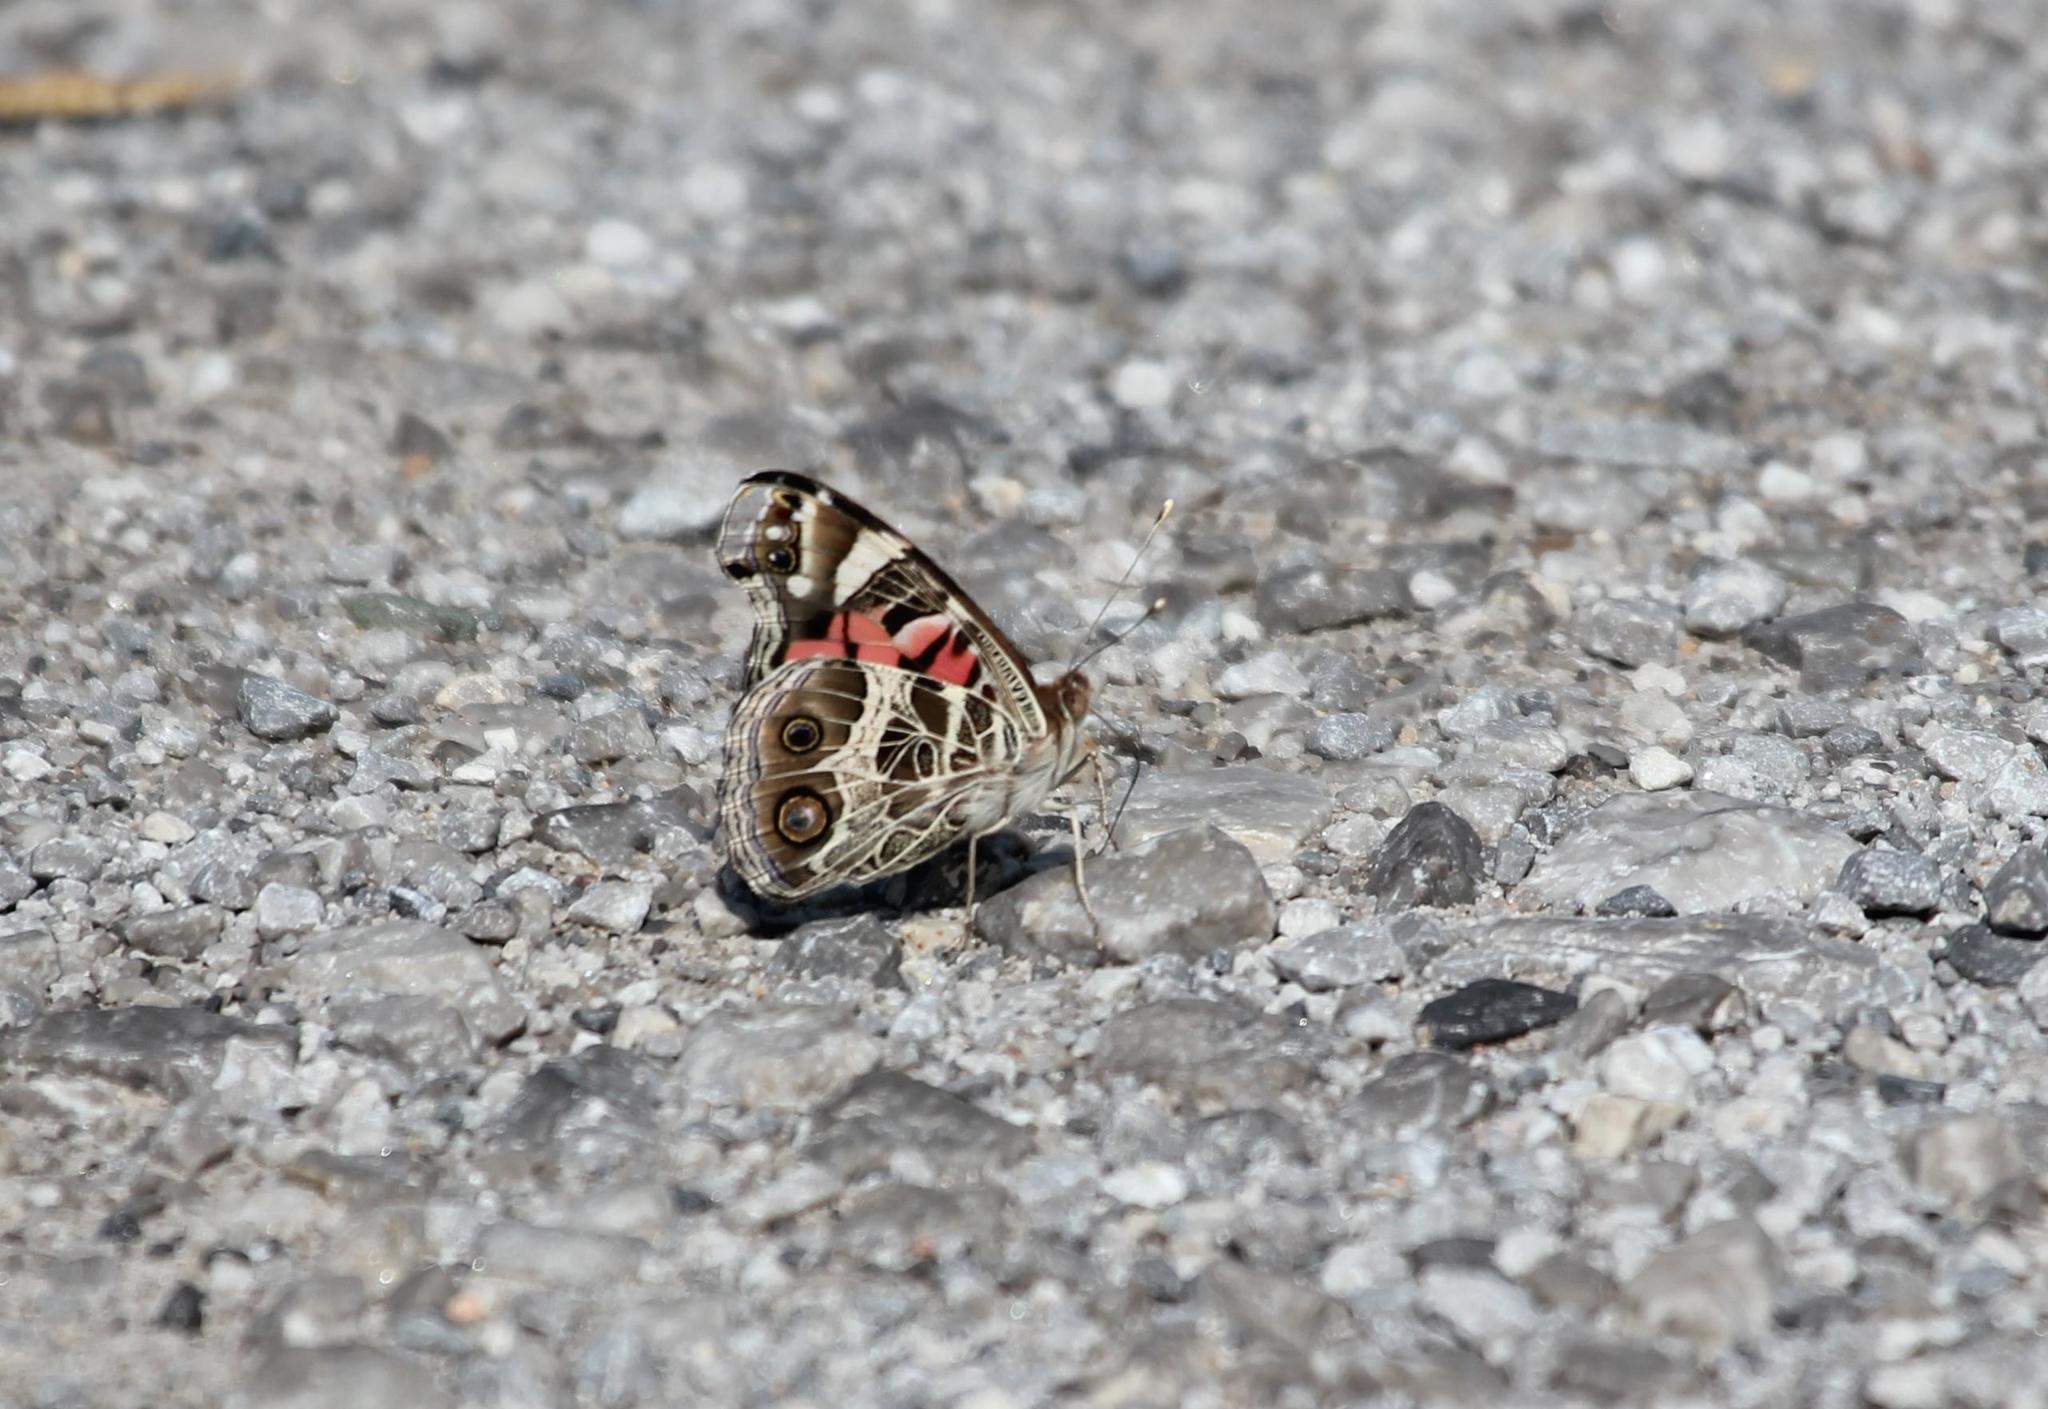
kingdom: Animalia
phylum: Arthropoda
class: Insecta
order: Lepidoptera
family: Nymphalidae
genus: Vanessa
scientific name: Vanessa virginiensis
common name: American lady
